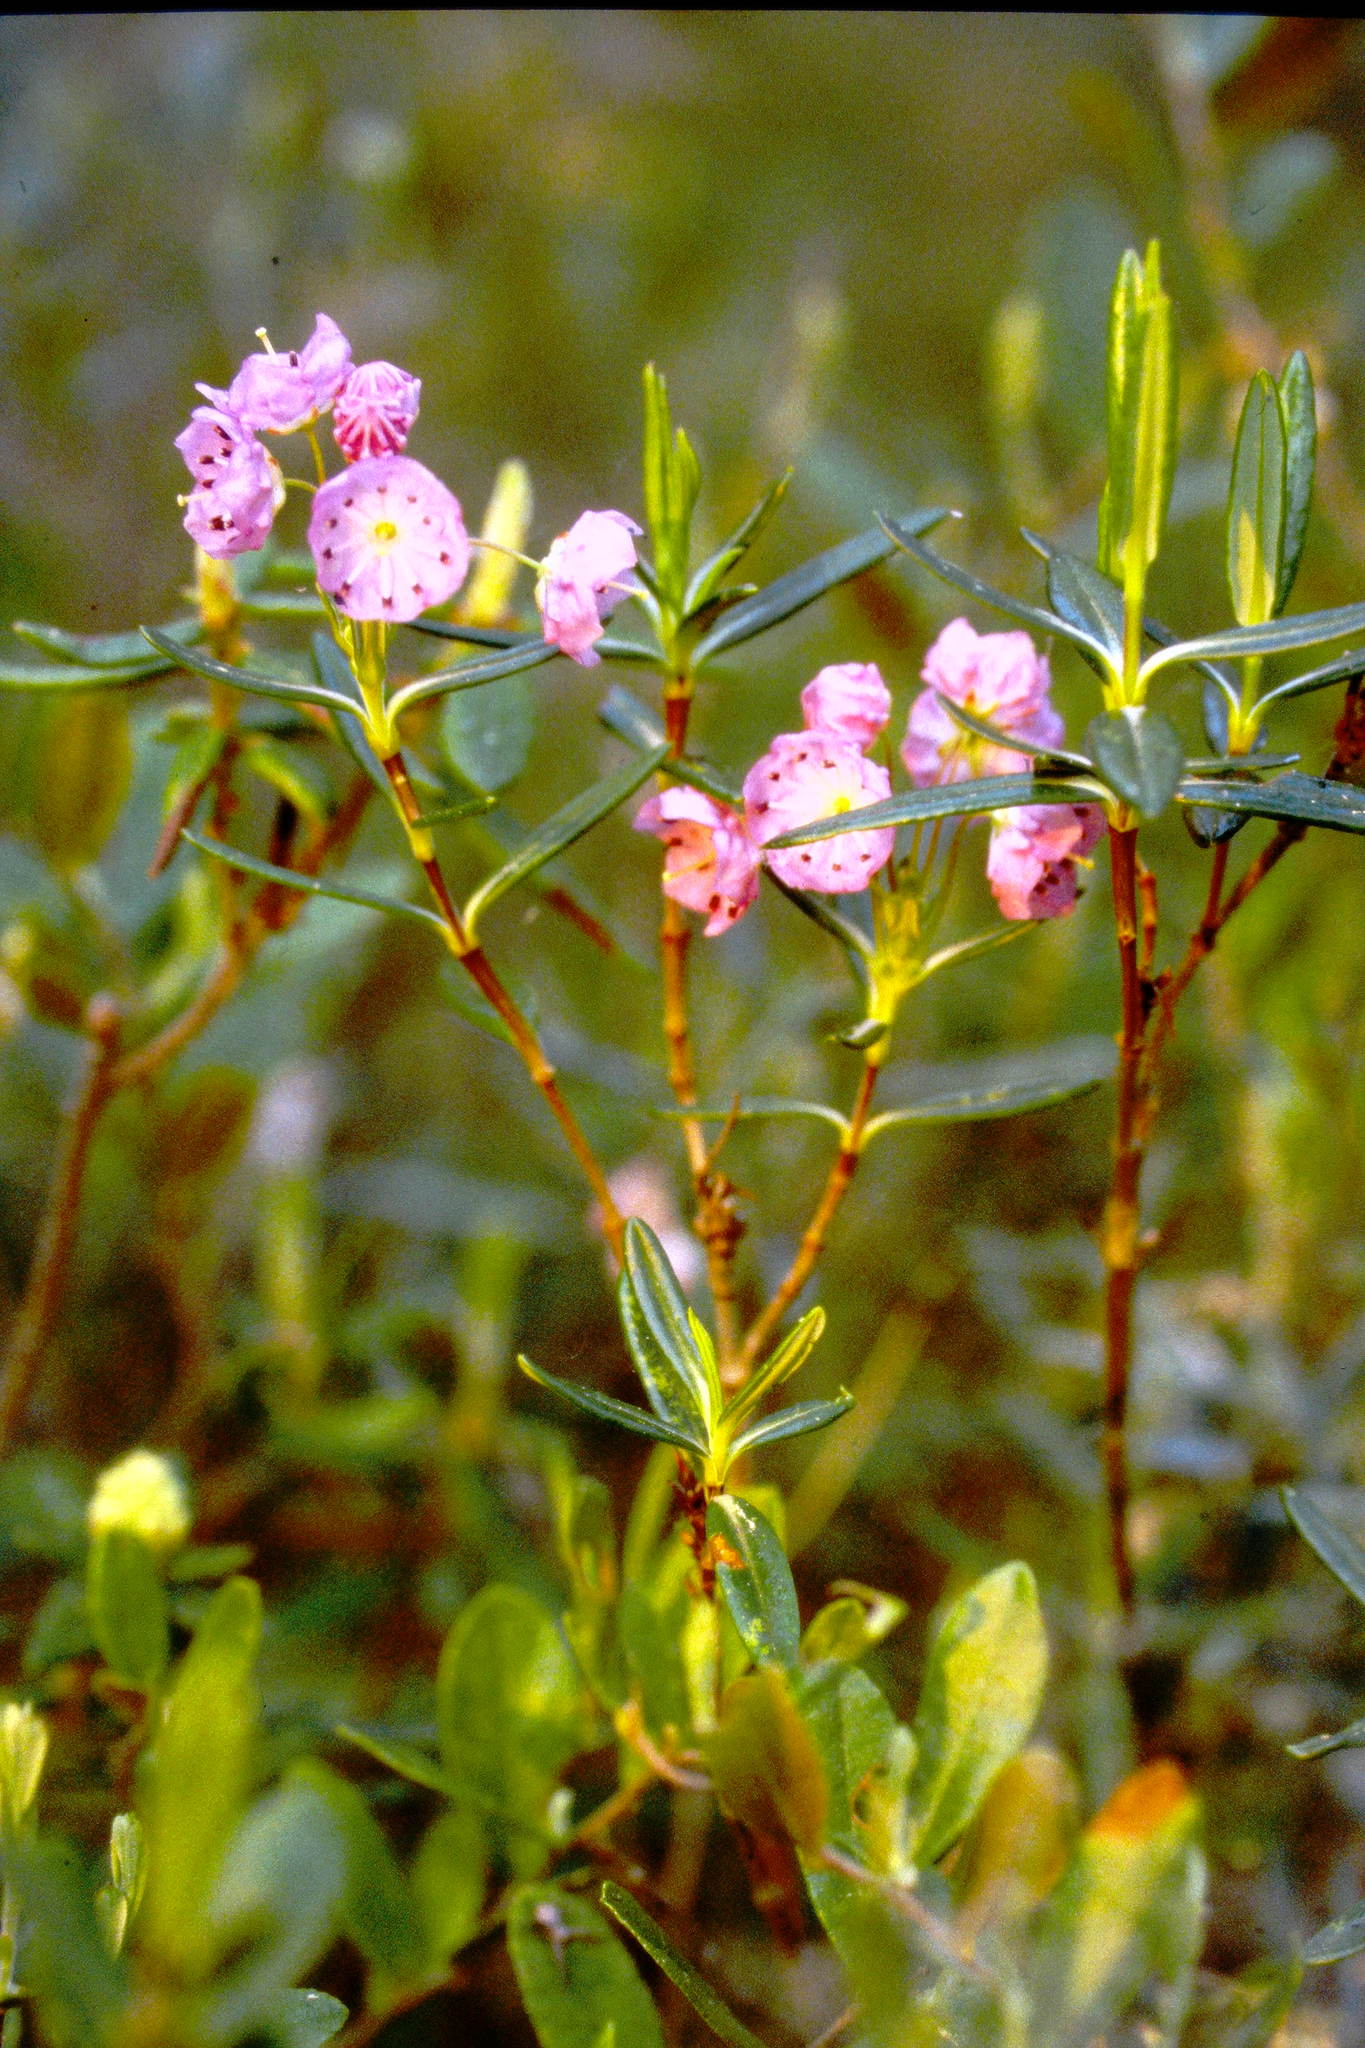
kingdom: Plantae
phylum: Tracheophyta
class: Magnoliopsida
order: Ericales
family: Ericaceae
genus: Kalmia
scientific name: Kalmia polifolia
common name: Bog-laurel
